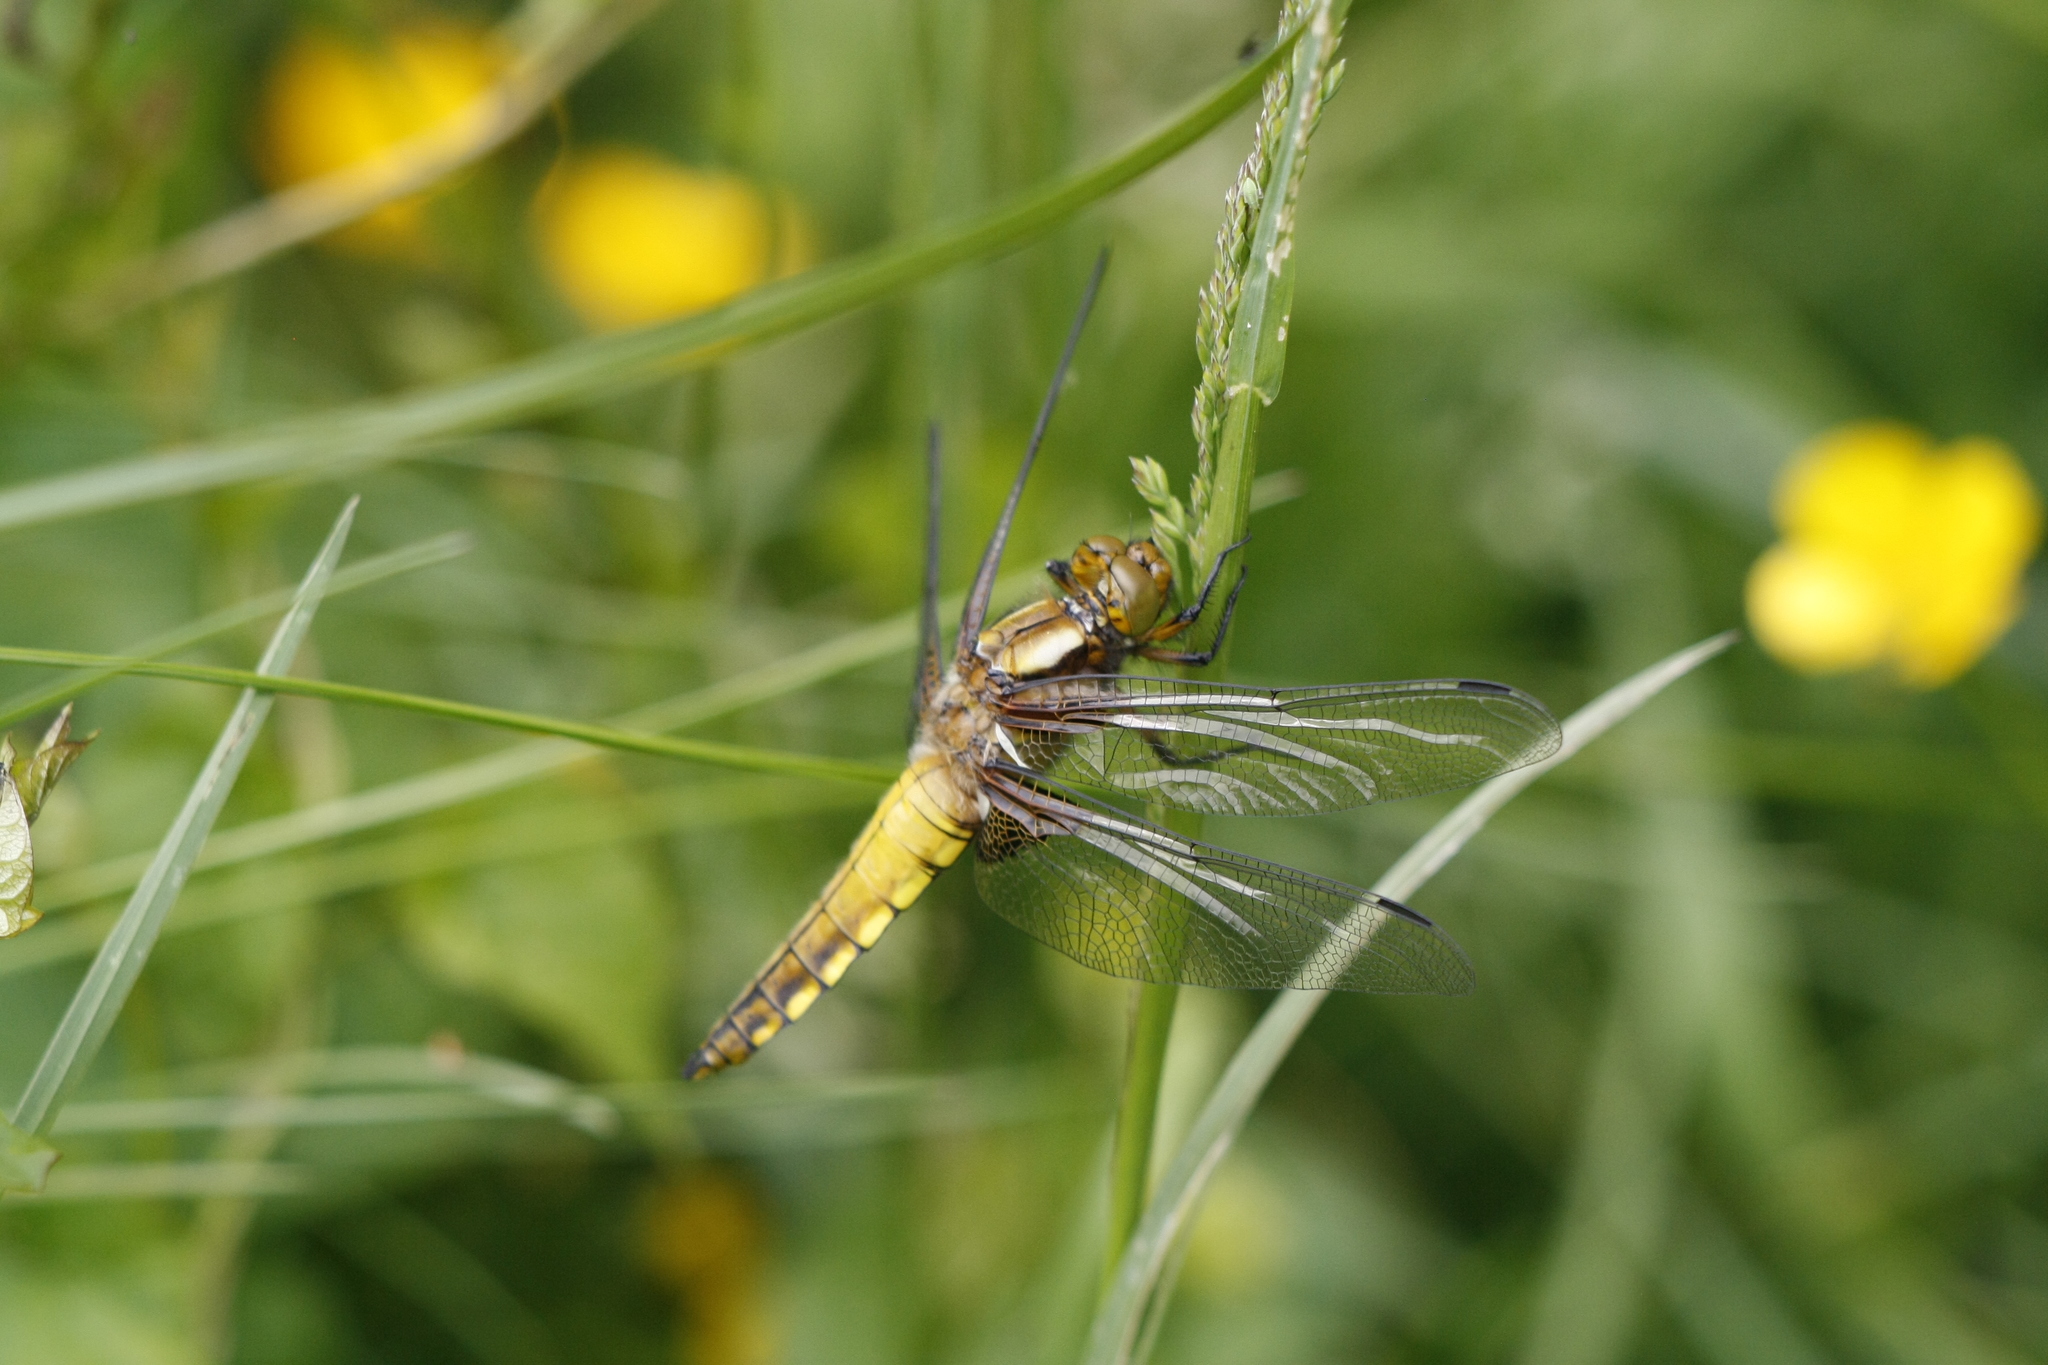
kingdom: Animalia
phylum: Arthropoda
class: Insecta
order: Odonata
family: Libellulidae
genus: Libellula
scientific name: Libellula depressa
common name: Broad-bodied chaser
